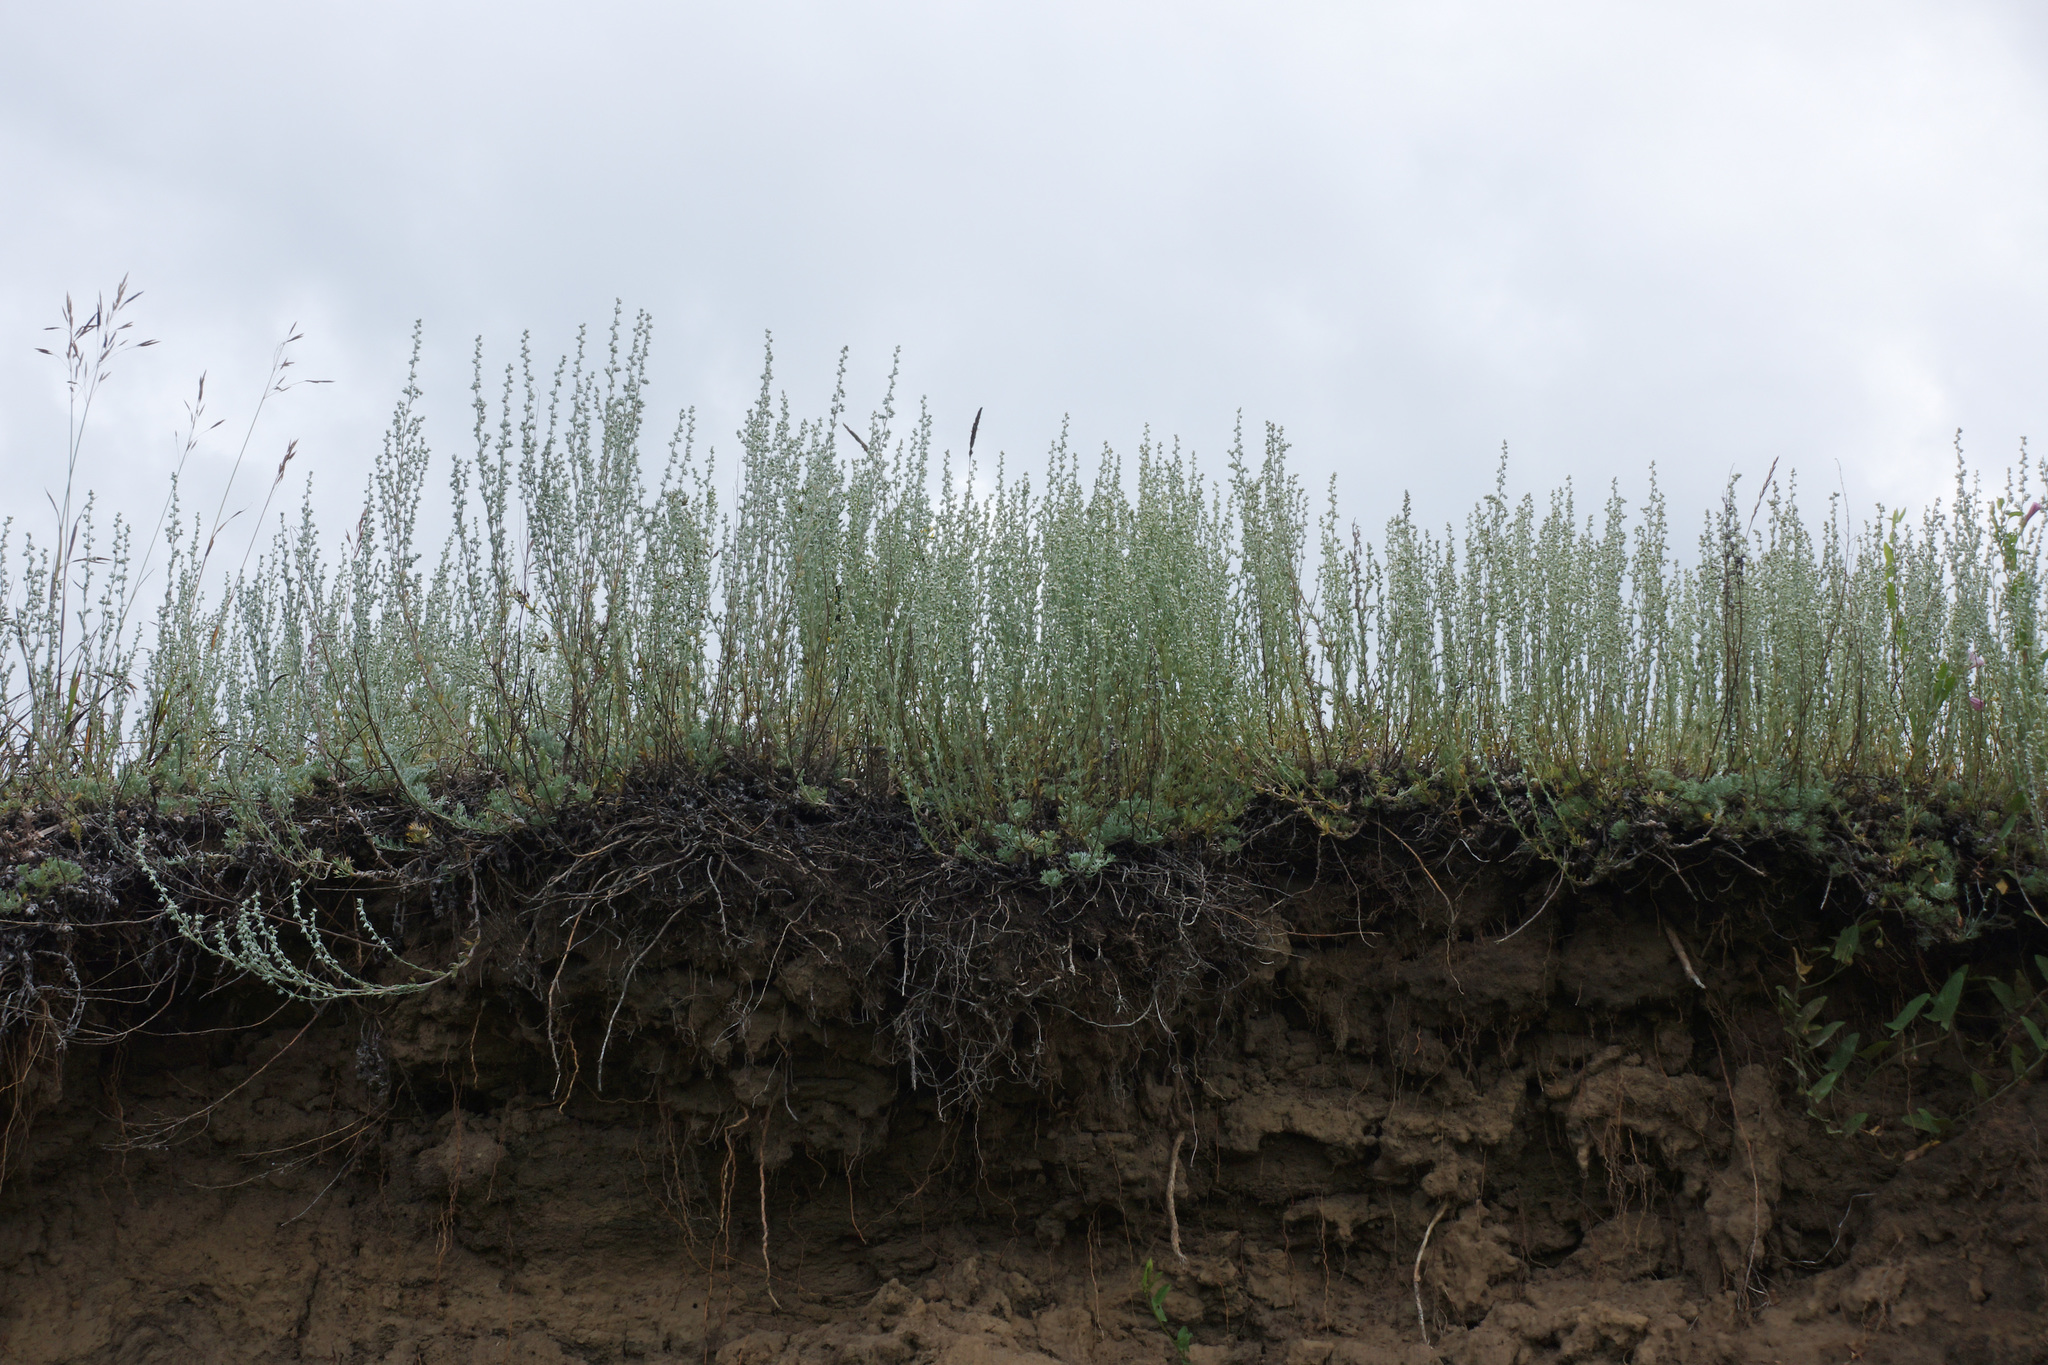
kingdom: Plantae
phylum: Tracheophyta
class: Magnoliopsida
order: Asterales
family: Asteraceae
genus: Artemisia
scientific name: Artemisia frigida
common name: Prairie sagewort
